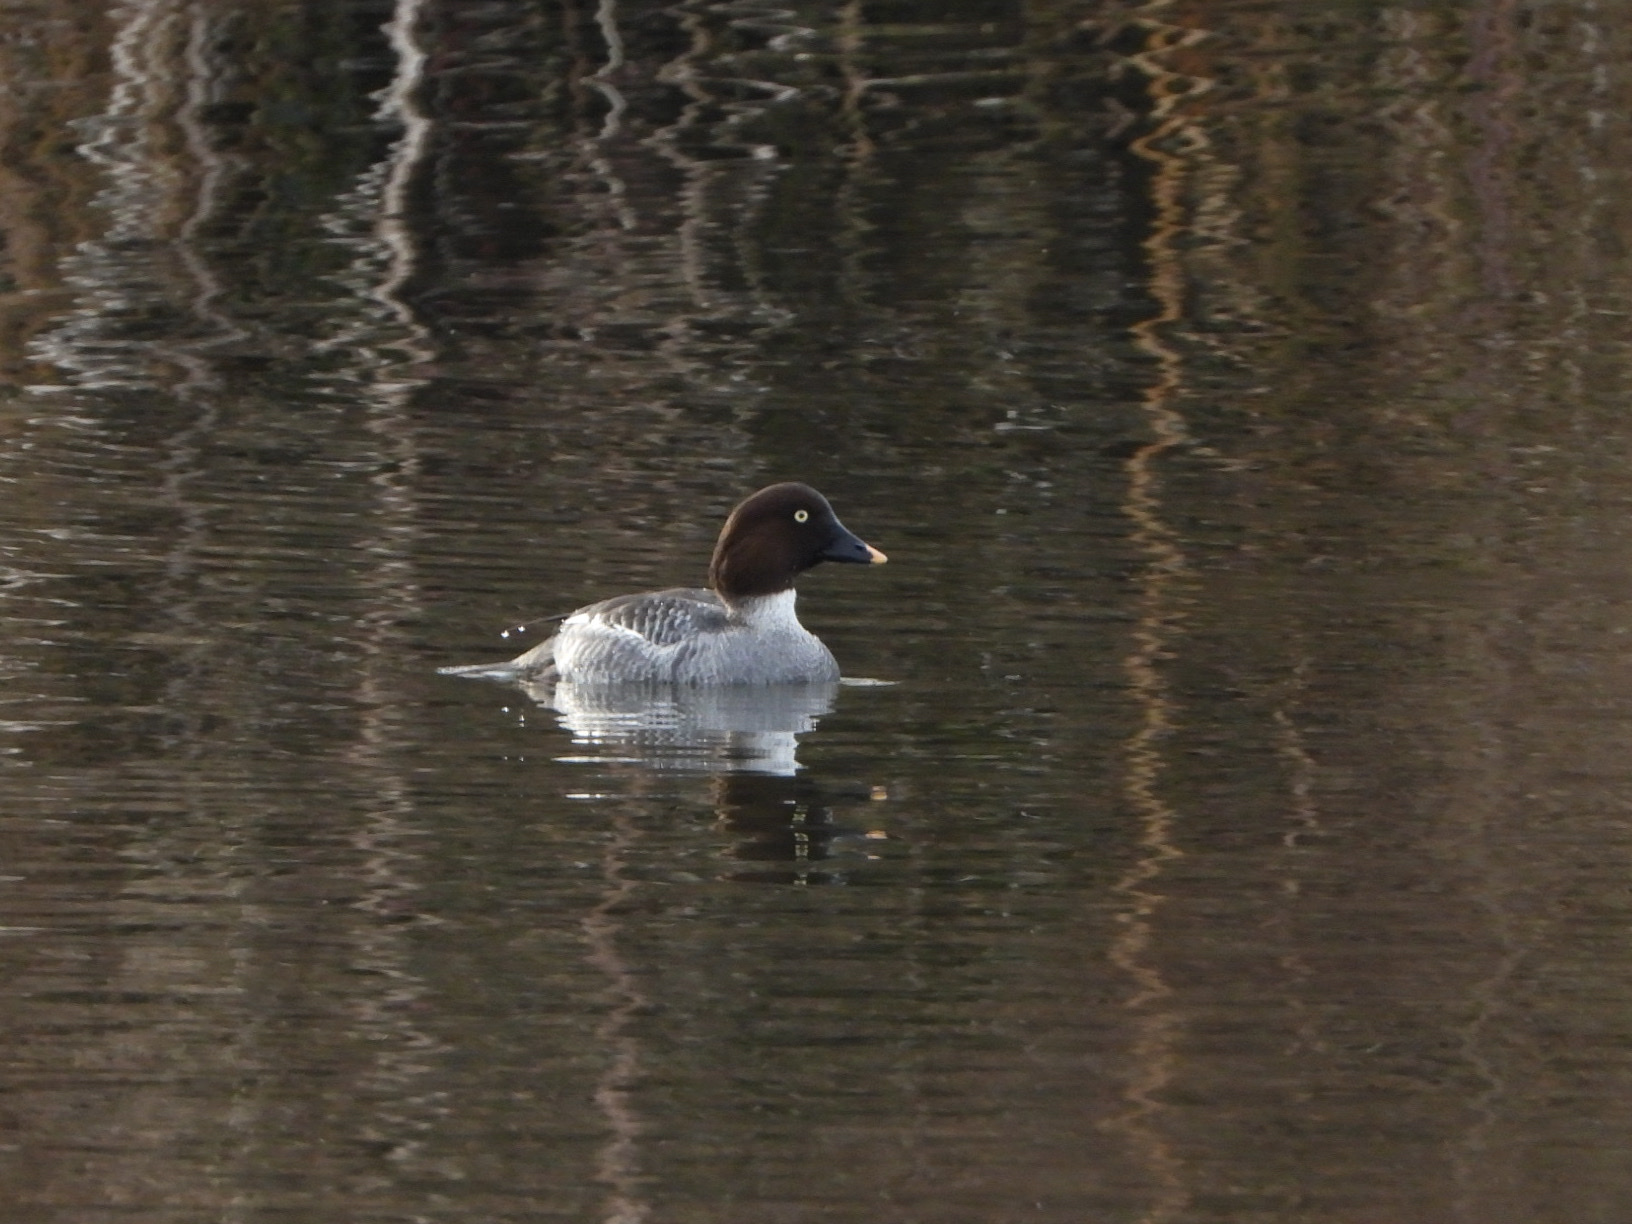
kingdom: Animalia
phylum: Chordata
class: Aves
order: Anseriformes
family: Anatidae
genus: Bucephala
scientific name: Bucephala clangula
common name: Common goldeneye
